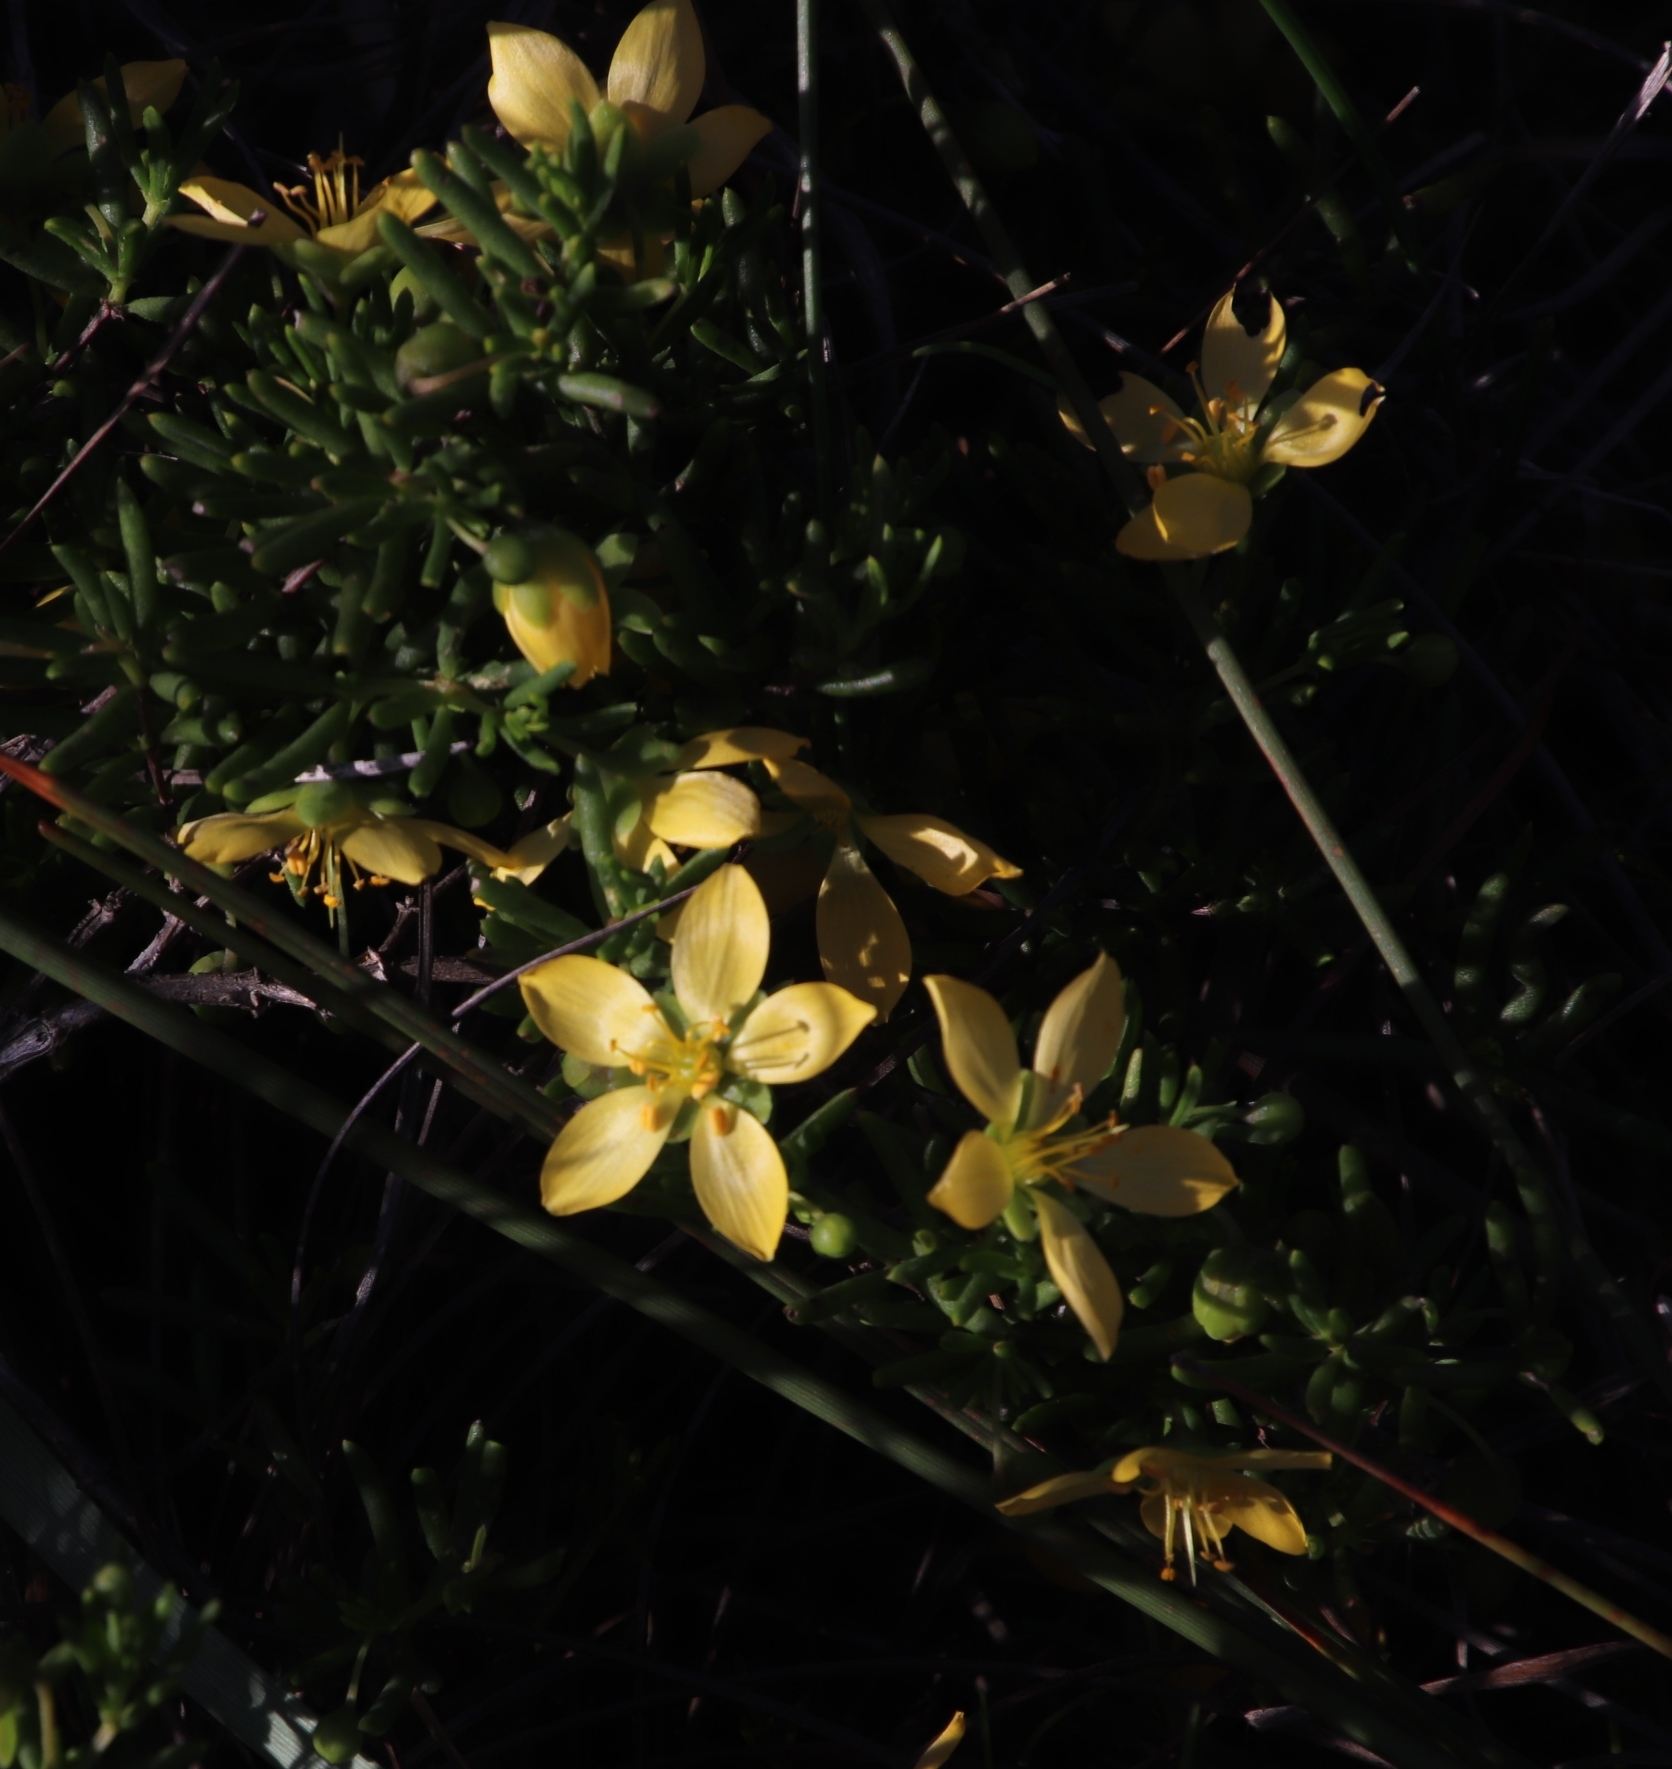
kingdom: Plantae
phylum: Tracheophyta
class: Magnoliopsida
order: Zygophyllales
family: Zygophyllaceae
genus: Roepera
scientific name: Roepera spinosa
